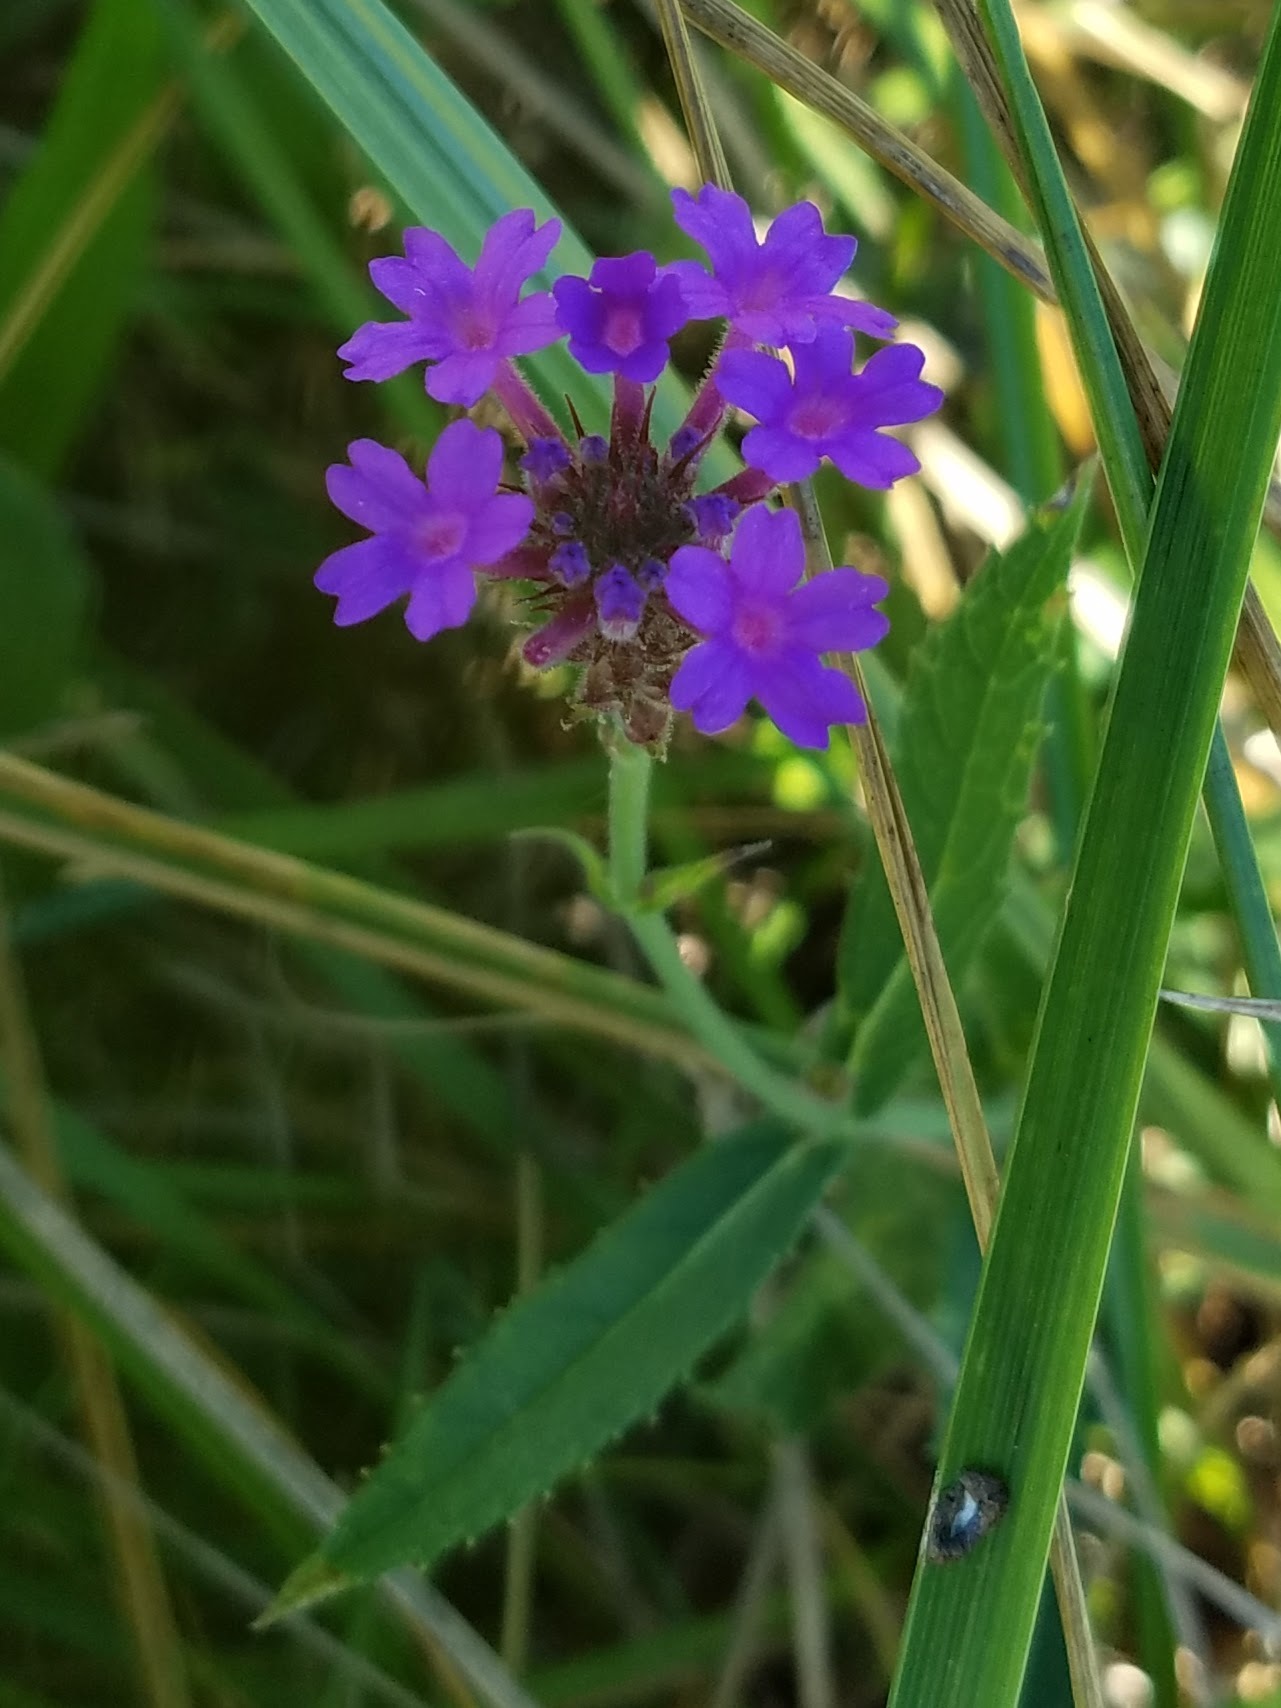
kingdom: Plantae
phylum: Tracheophyta
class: Magnoliopsida
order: Lamiales
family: Verbenaceae
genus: Verbena
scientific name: Verbena rigida
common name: Slender vervain
